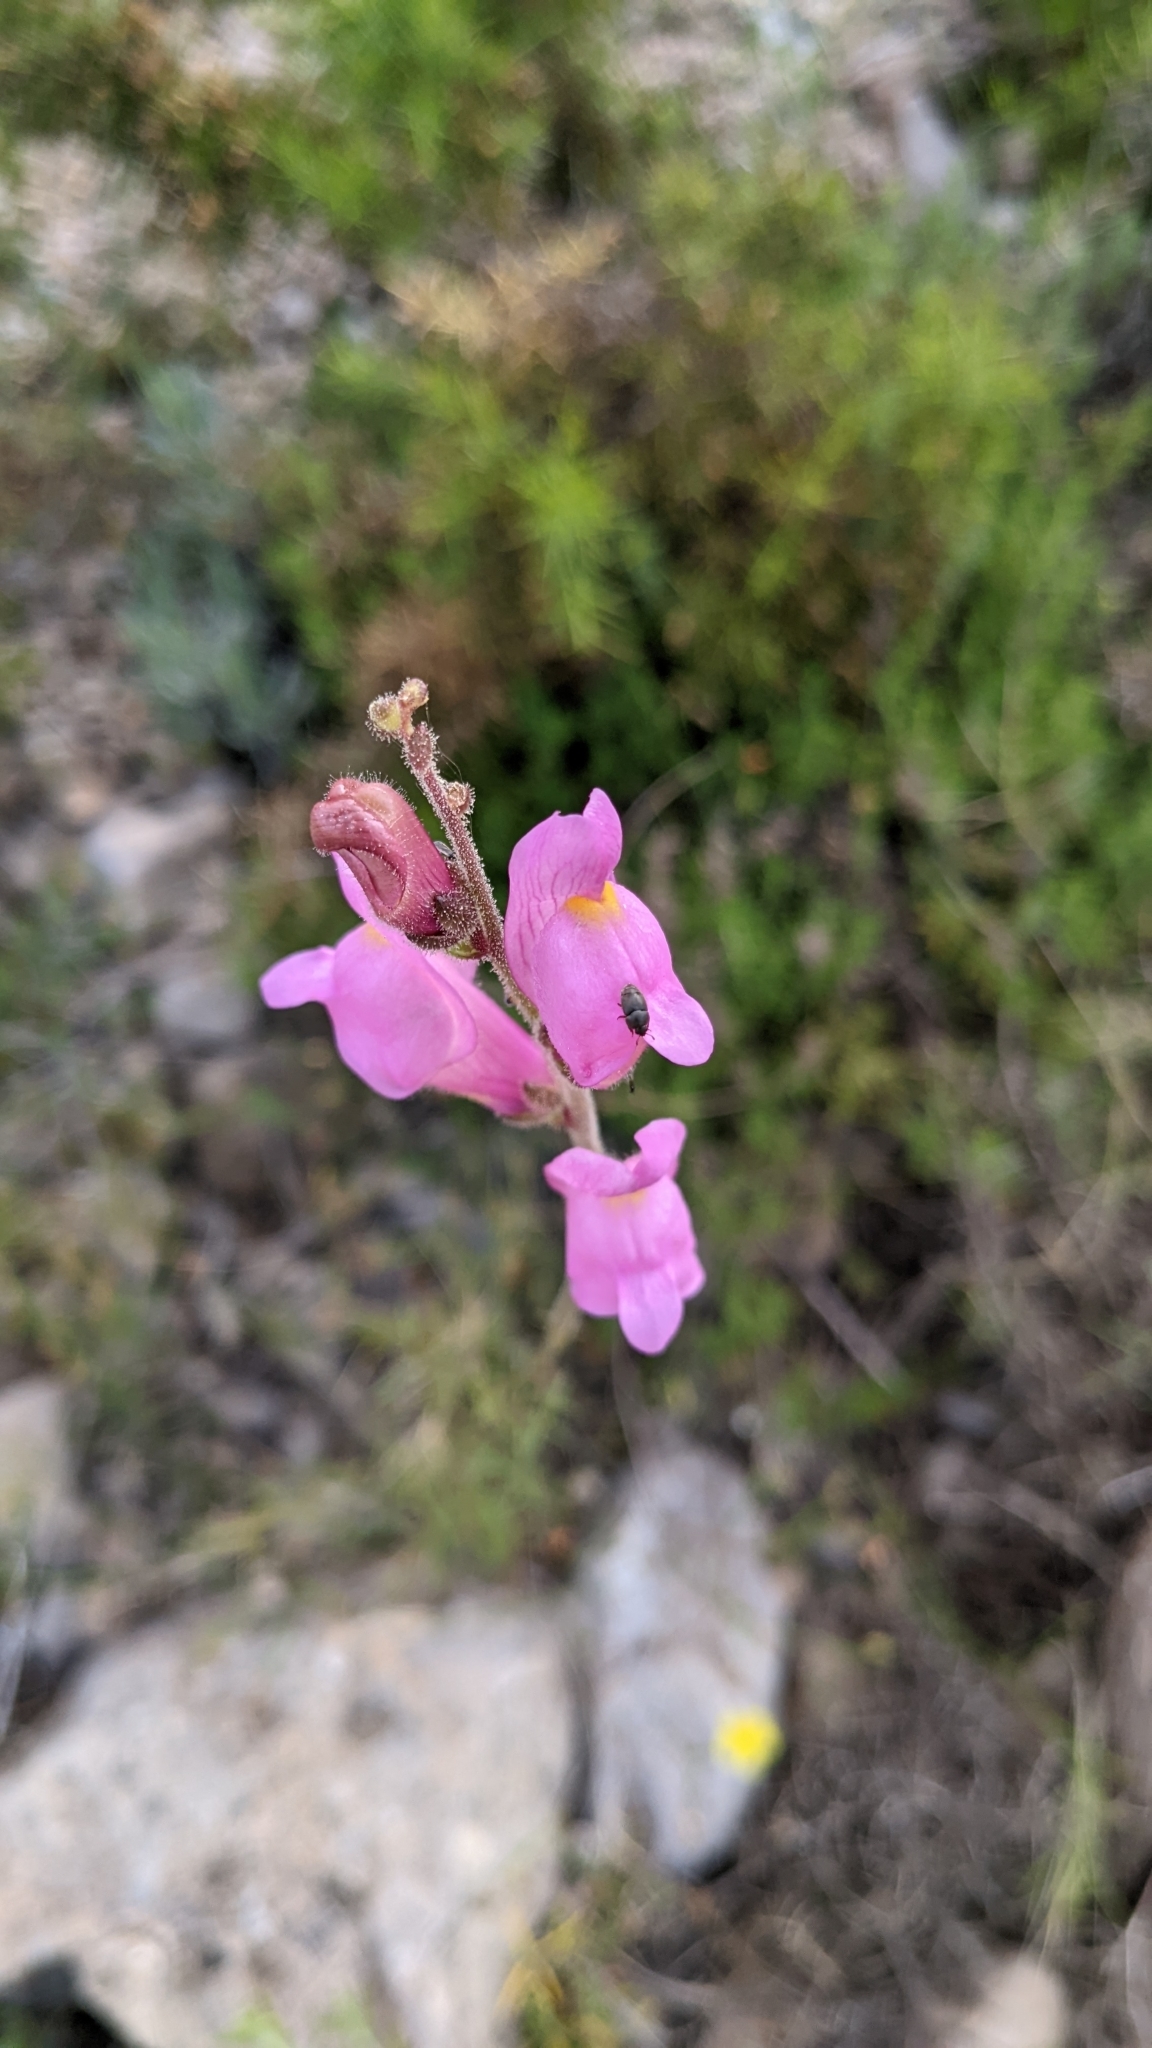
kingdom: Plantae
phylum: Tracheophyta
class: Magnoliopsida
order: Lamiales
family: Plantaginaceae
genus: Antirrhinum
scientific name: Antirrhinum litigiosum
